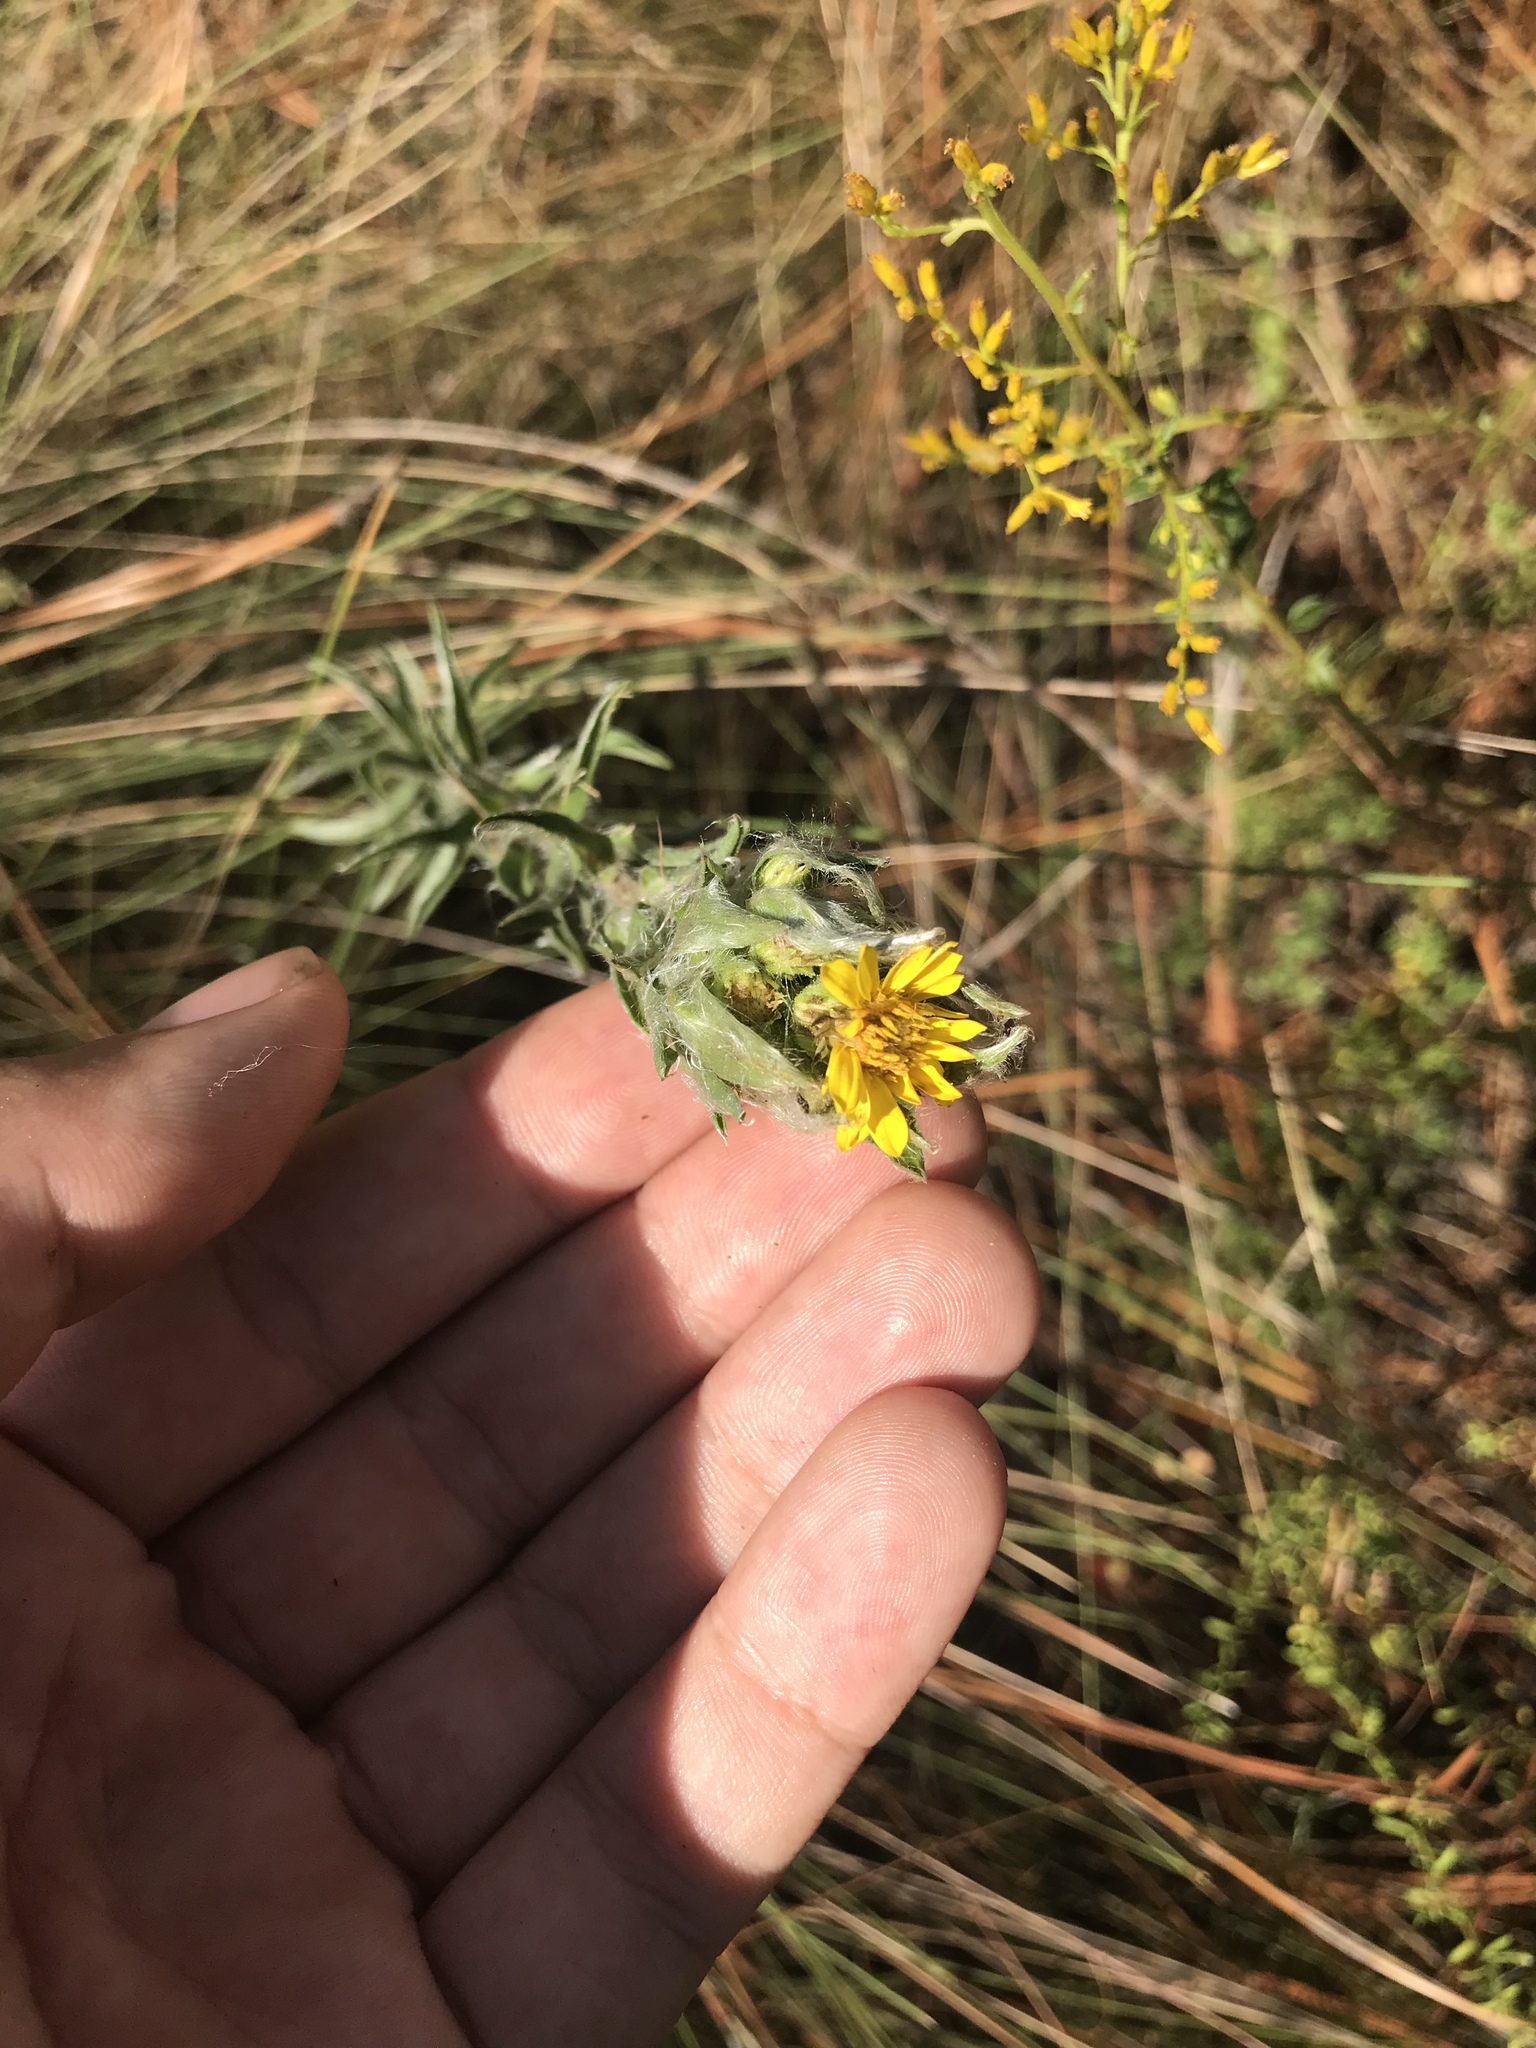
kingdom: Plantae
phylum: Tracheophyta
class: Magnoliopsida
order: Asterales
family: Asteraceae
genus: Chrysopsis
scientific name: Chrysopsis mariana
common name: Maryland golden-aster
